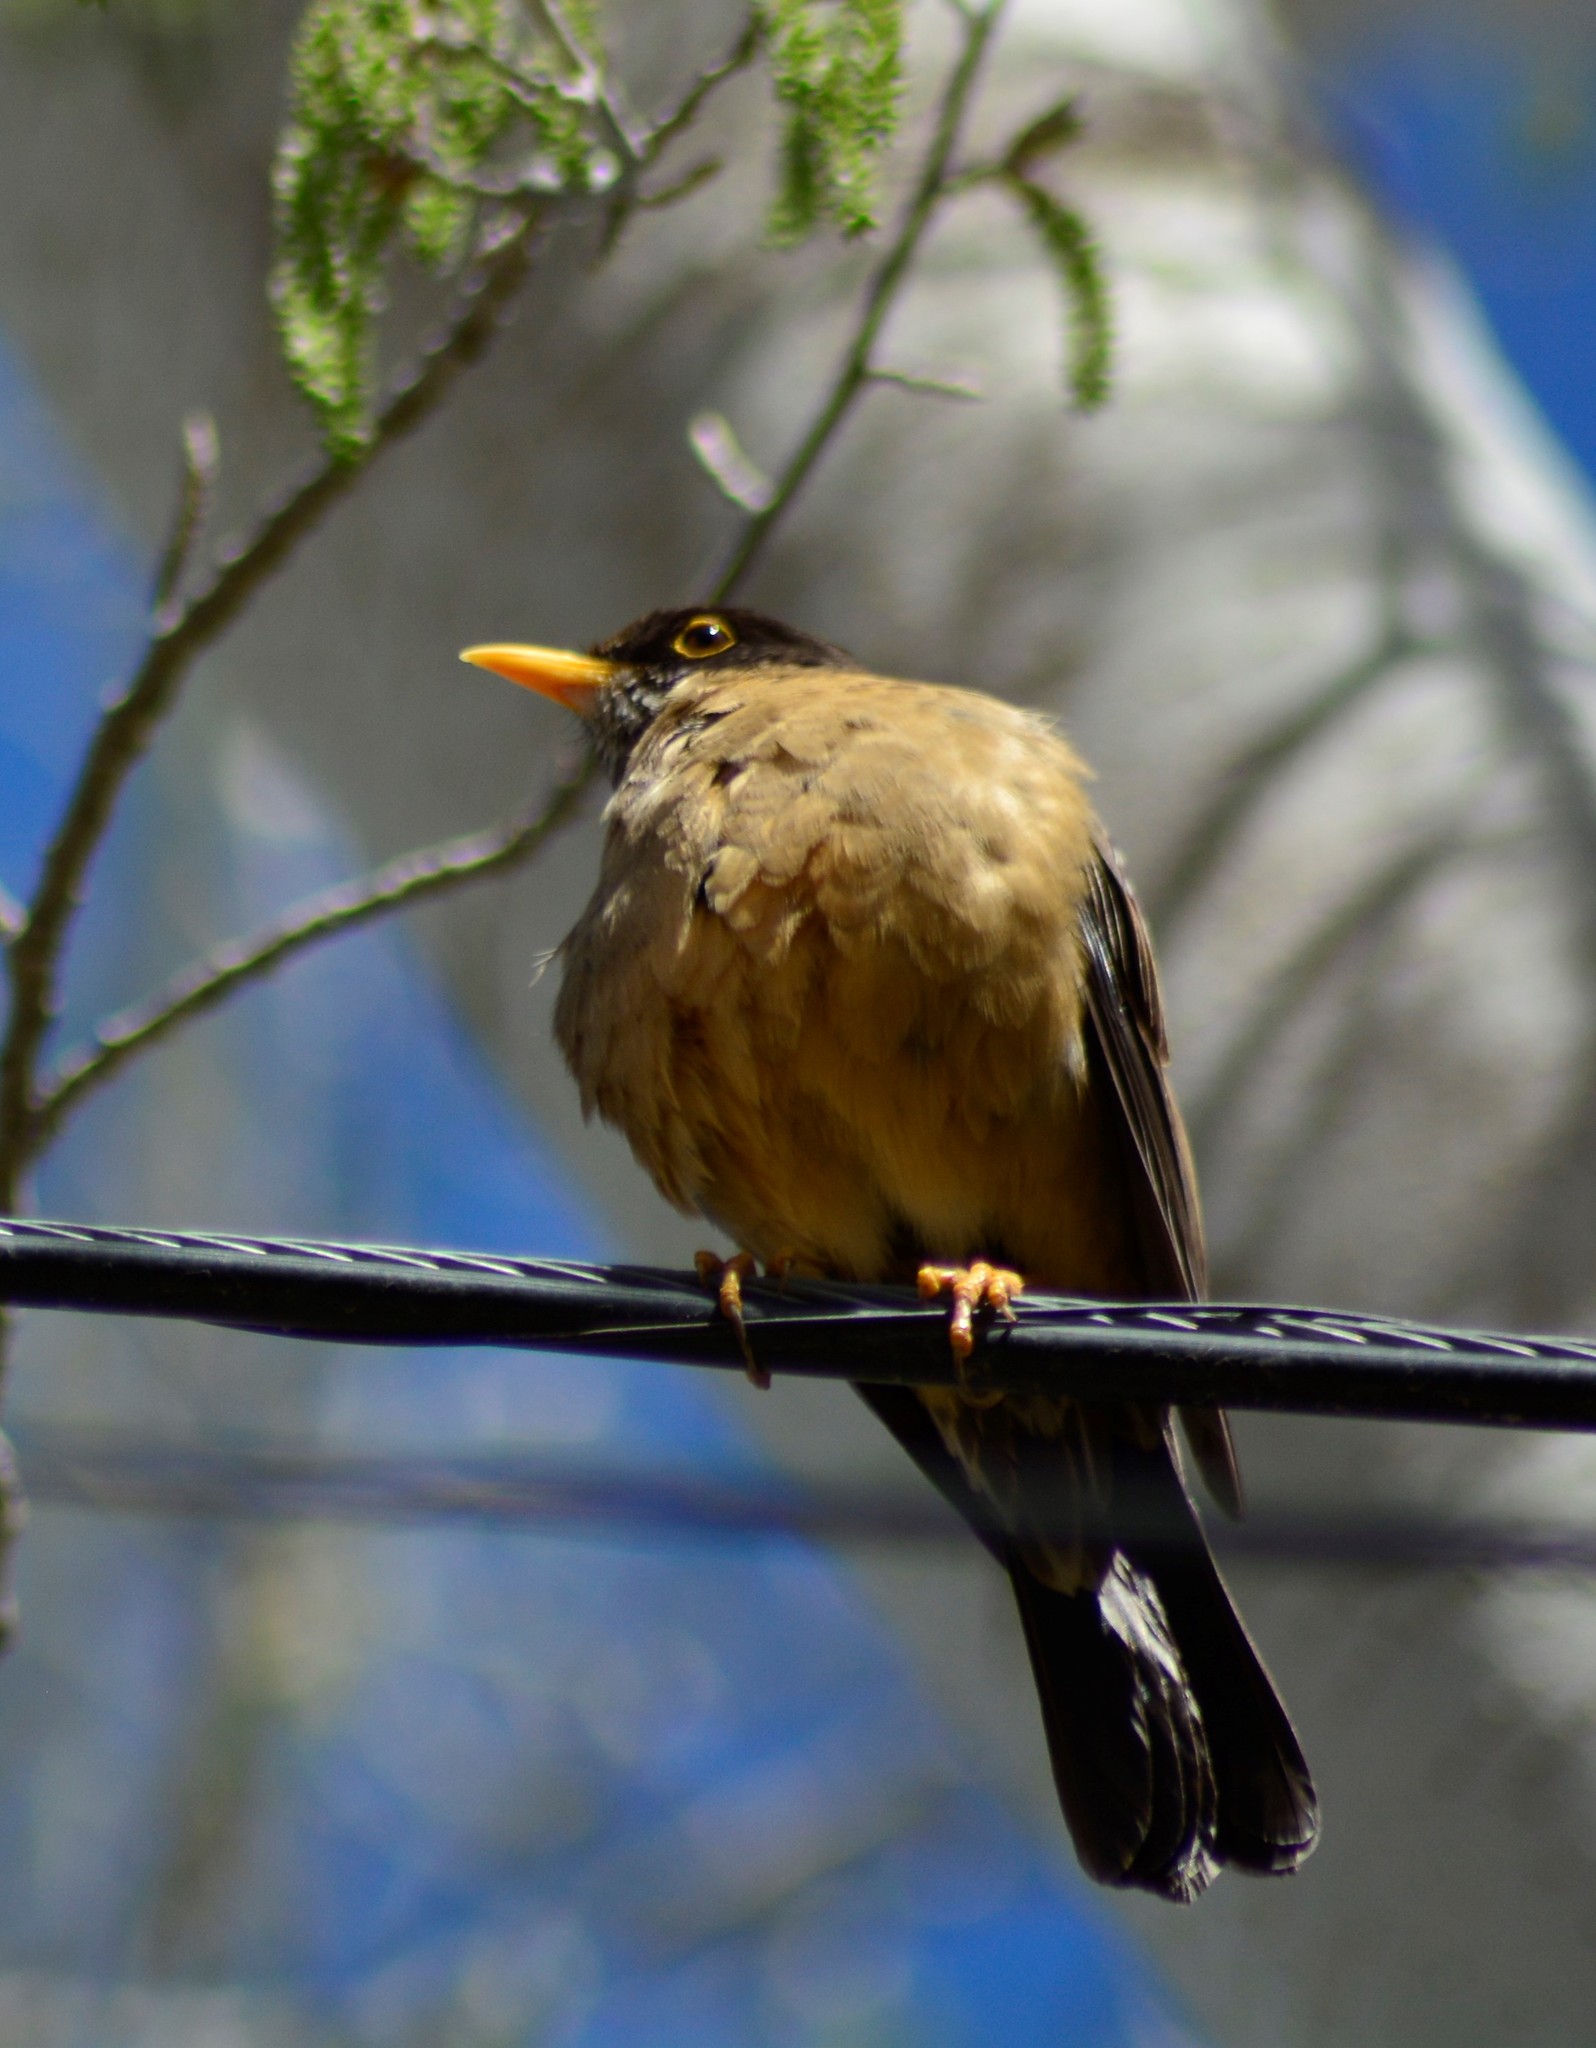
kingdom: Animalia
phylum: Chordata
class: Aves
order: Passeriformes
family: Turdidae
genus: Turdus
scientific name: Turdus falcklandii
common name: Austral thrush
